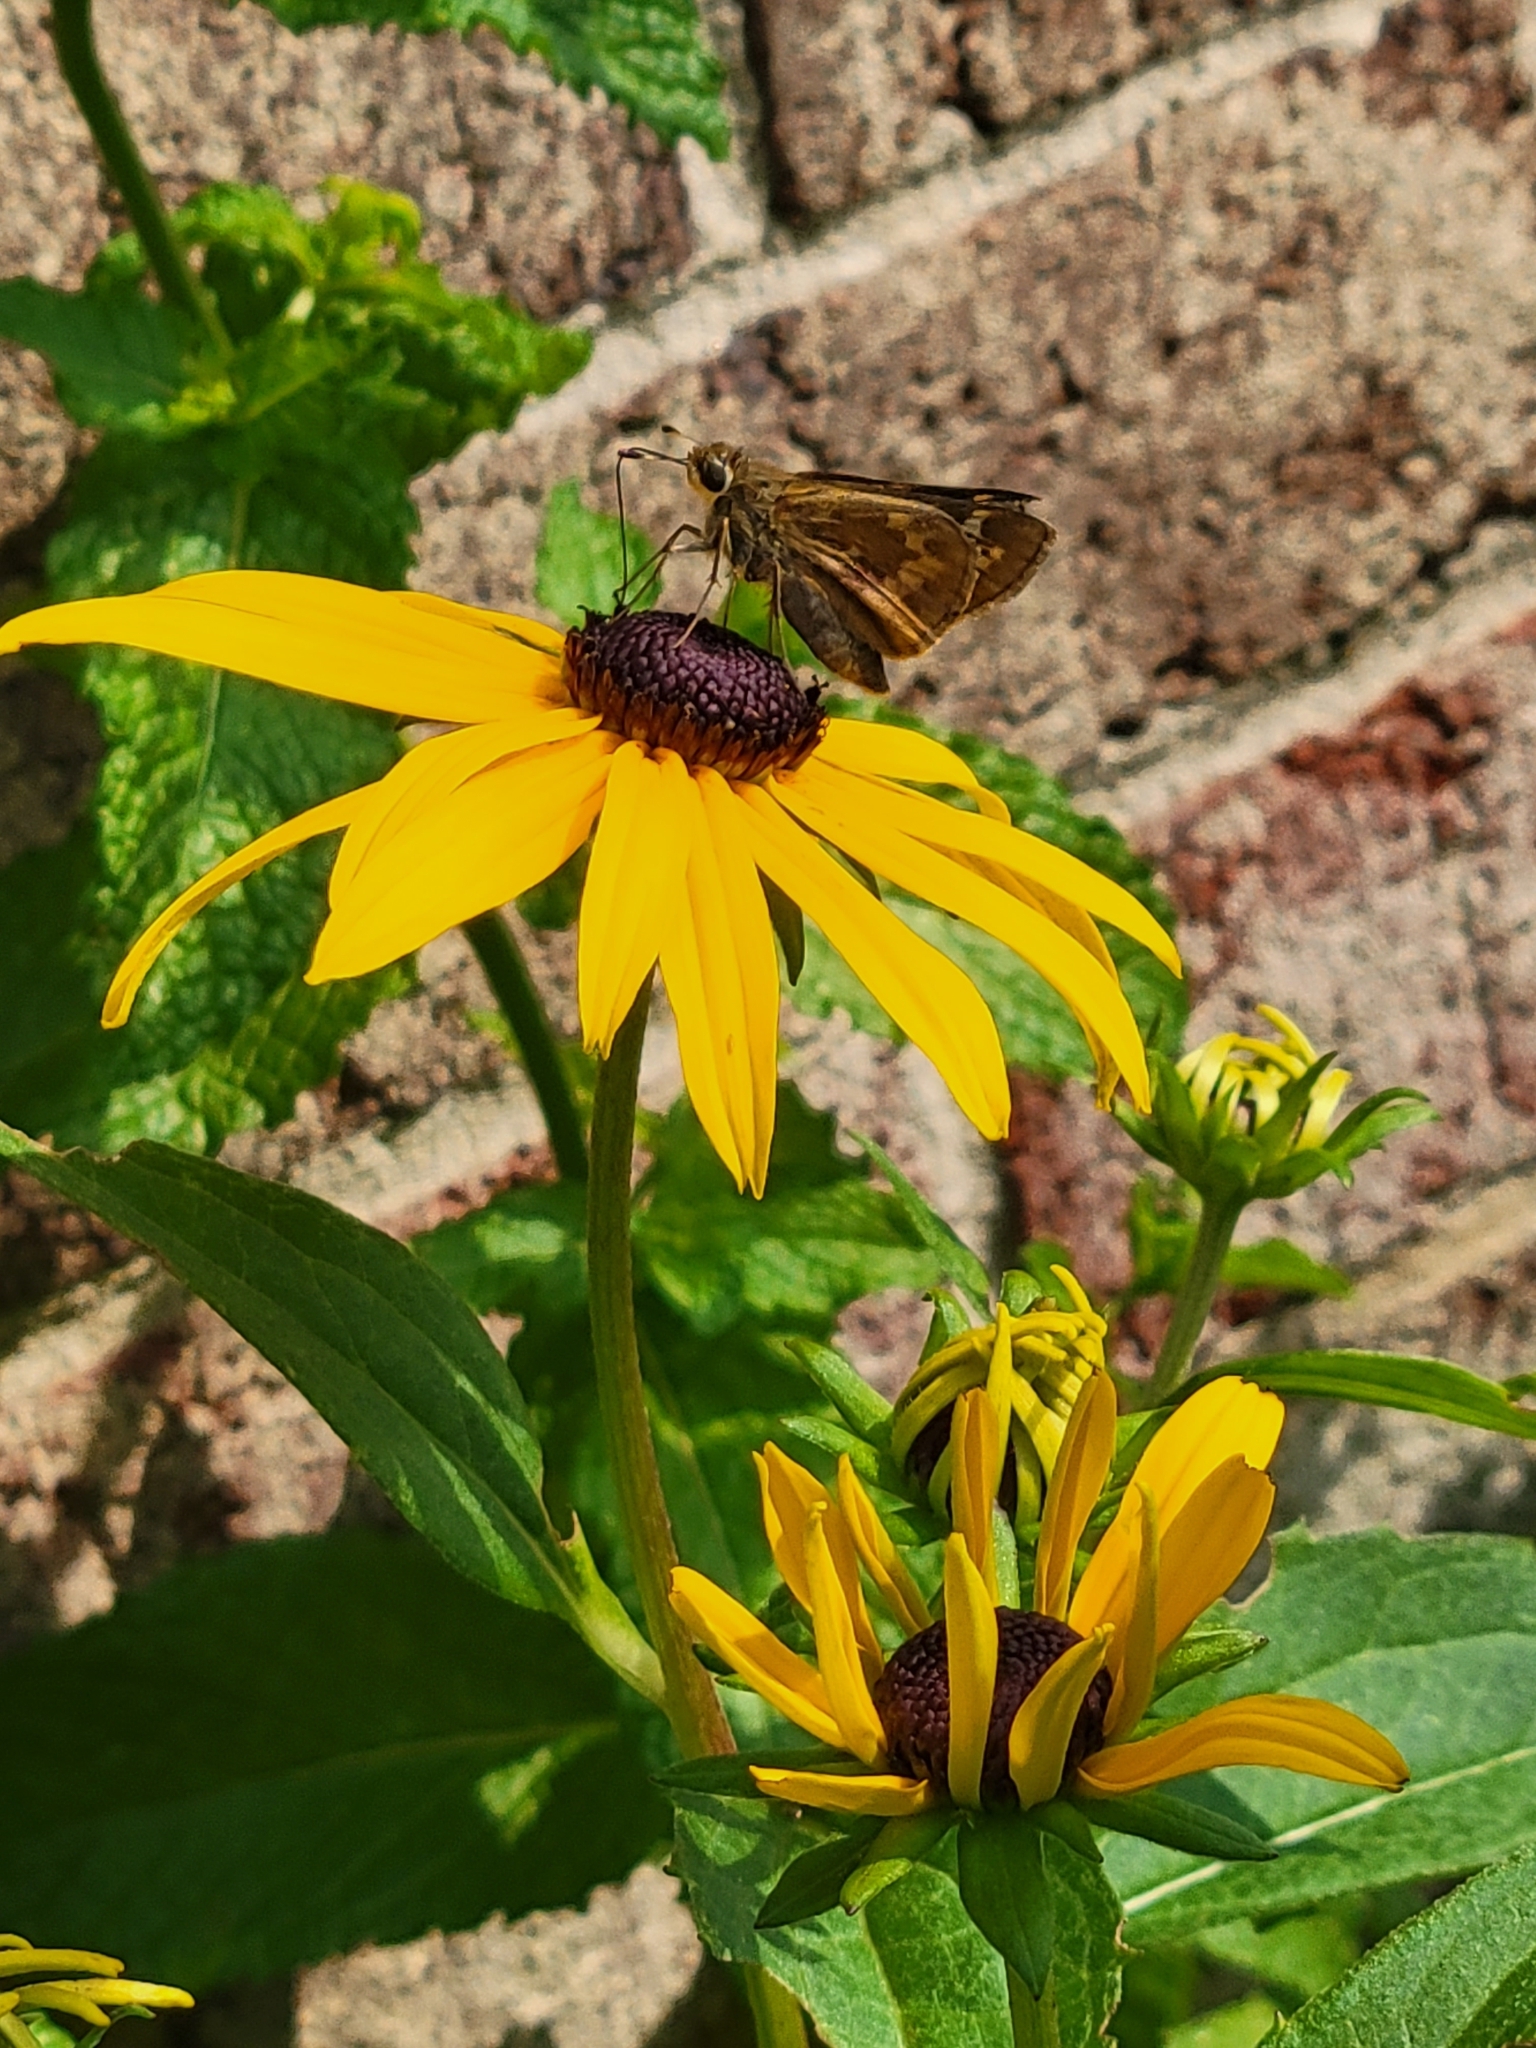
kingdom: Animalia
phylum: Arthropoda
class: Insecta
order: Lepidoptera
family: Hesperiidae
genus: Atalopedes
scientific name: Atalopedes
